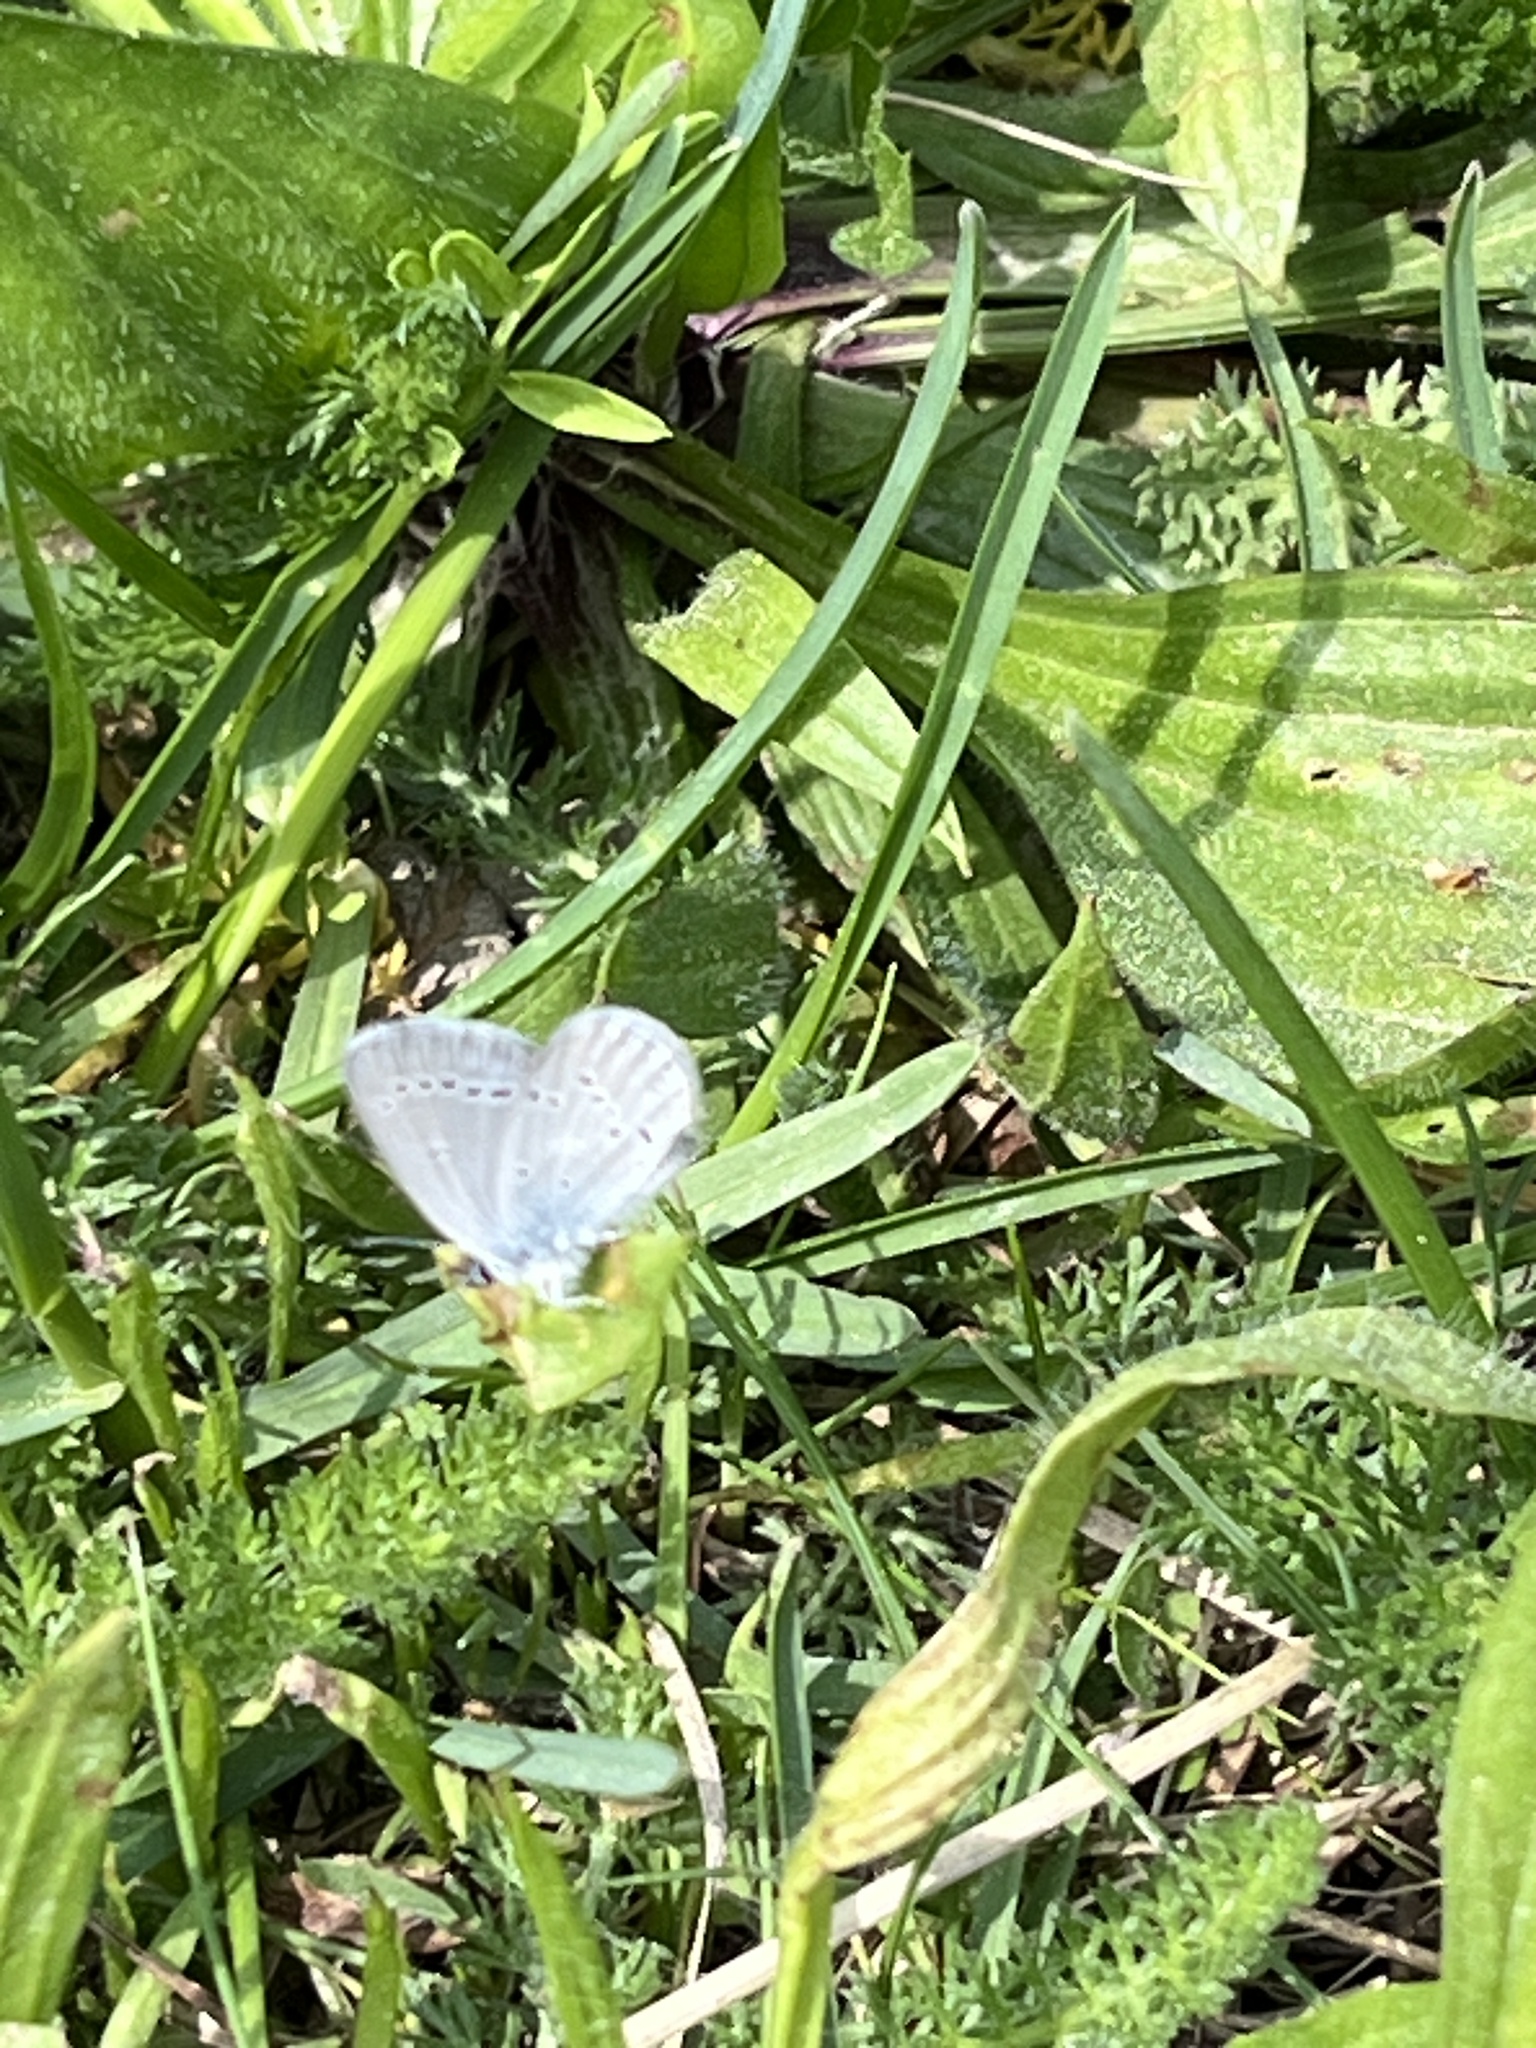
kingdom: Animalia
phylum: Arthropoda
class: Insecta
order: Lepidoptera
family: Lycaenidae
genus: Cupido
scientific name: Cupido minimus
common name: Small blue
